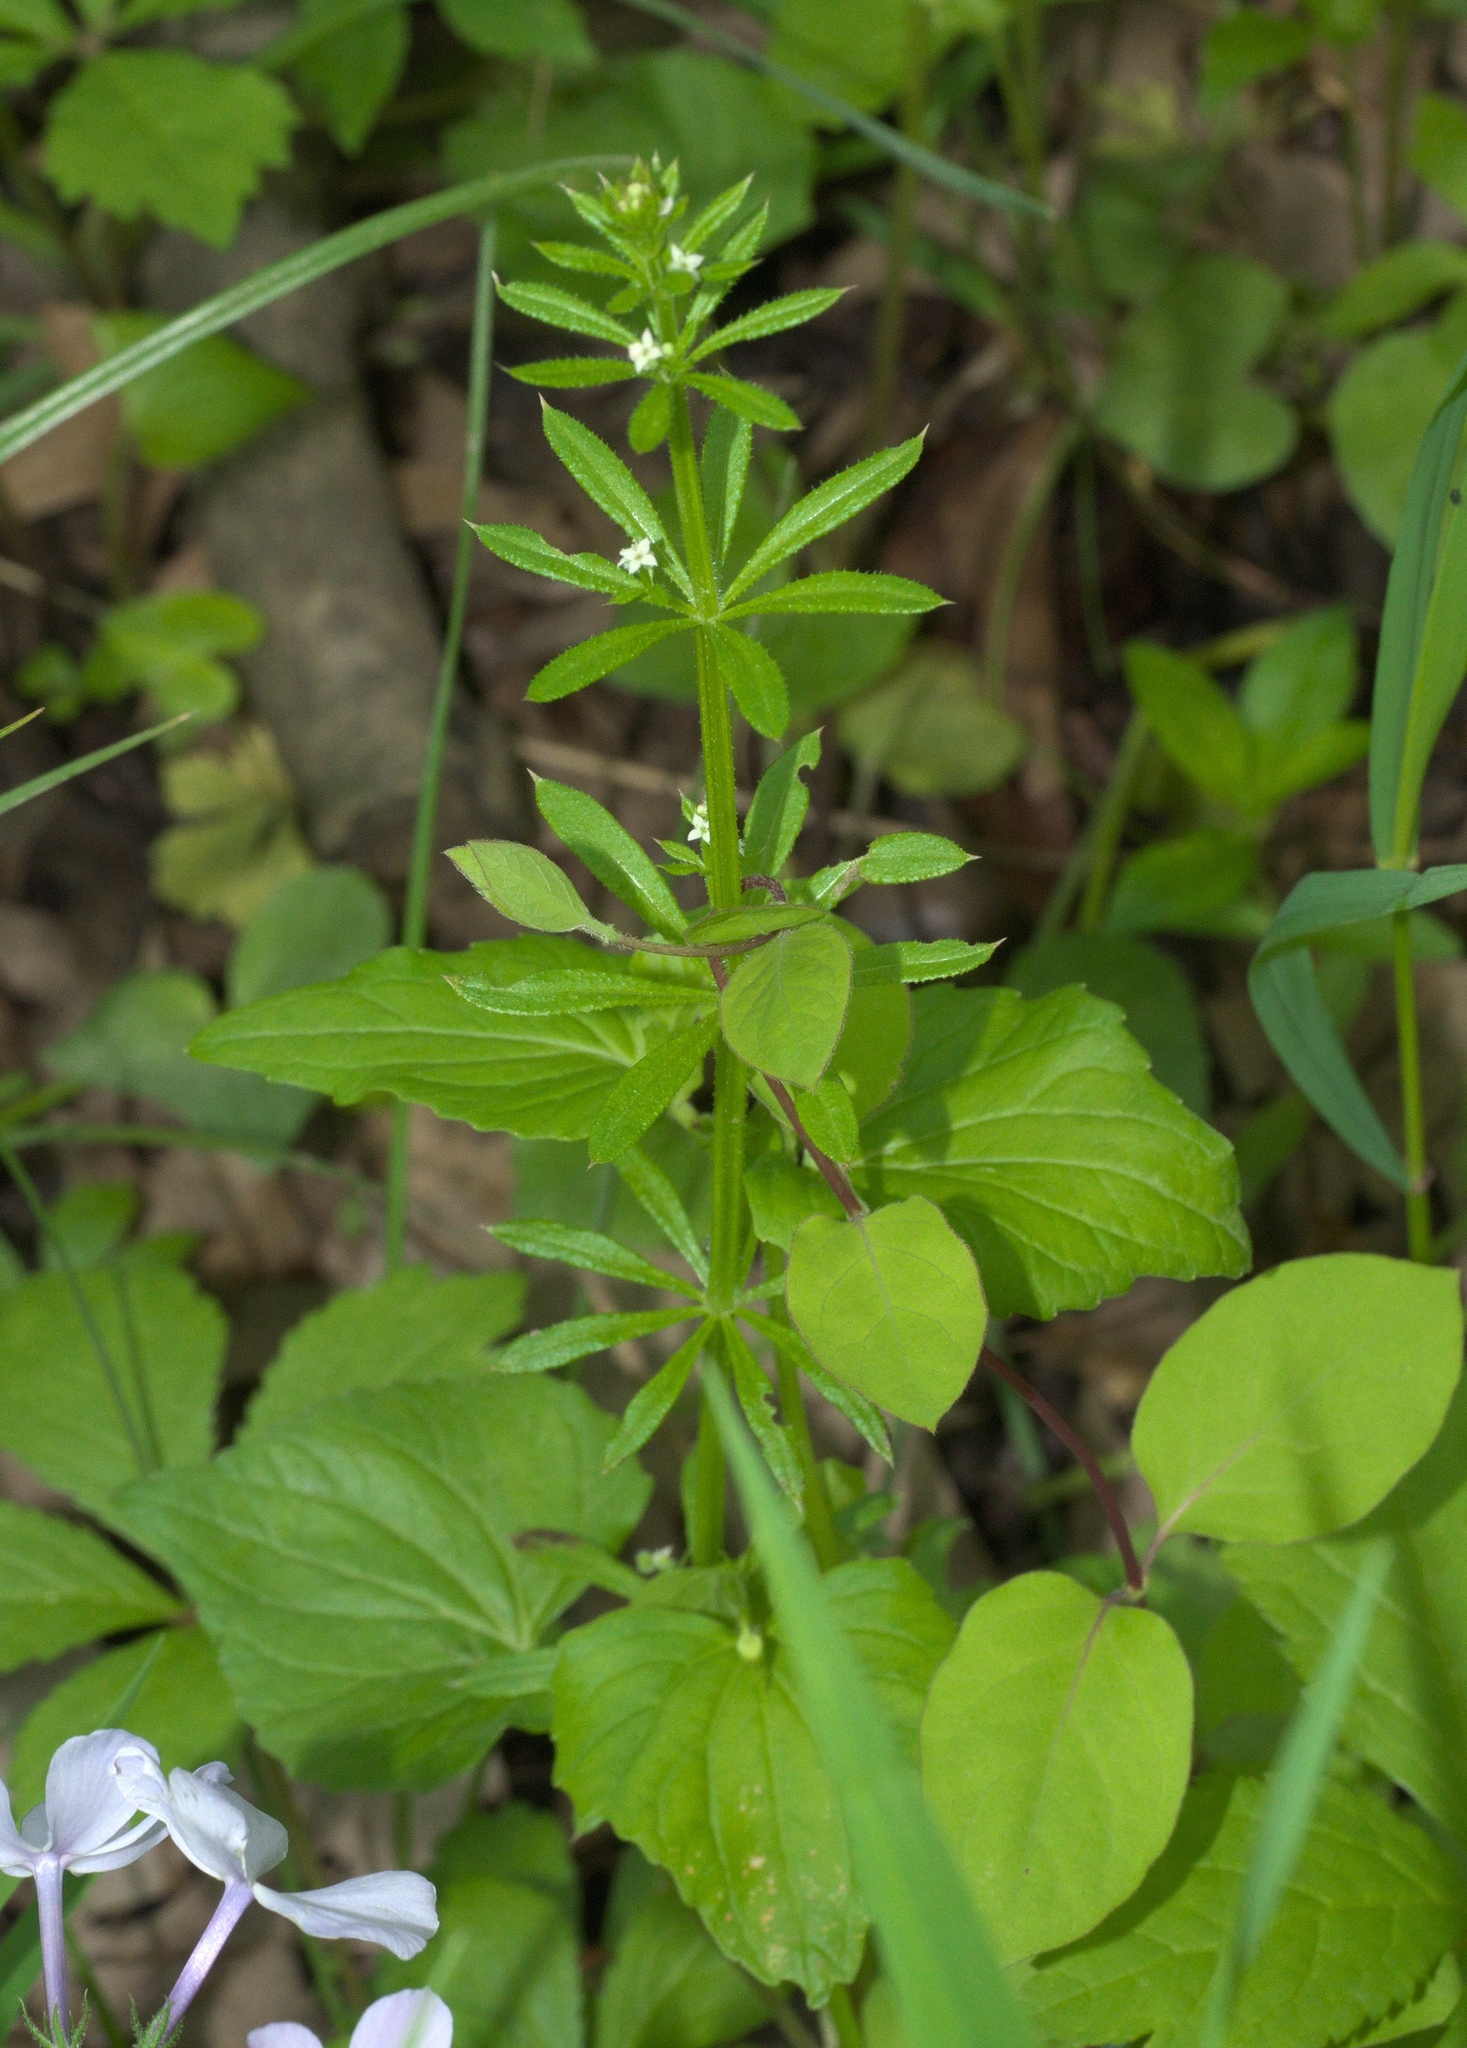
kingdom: Plantae
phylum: Tracheophyta
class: Magnoliopsida
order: Gentianales
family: Rubiaceae
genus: Galium
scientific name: Galium aparine
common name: Cleavers
